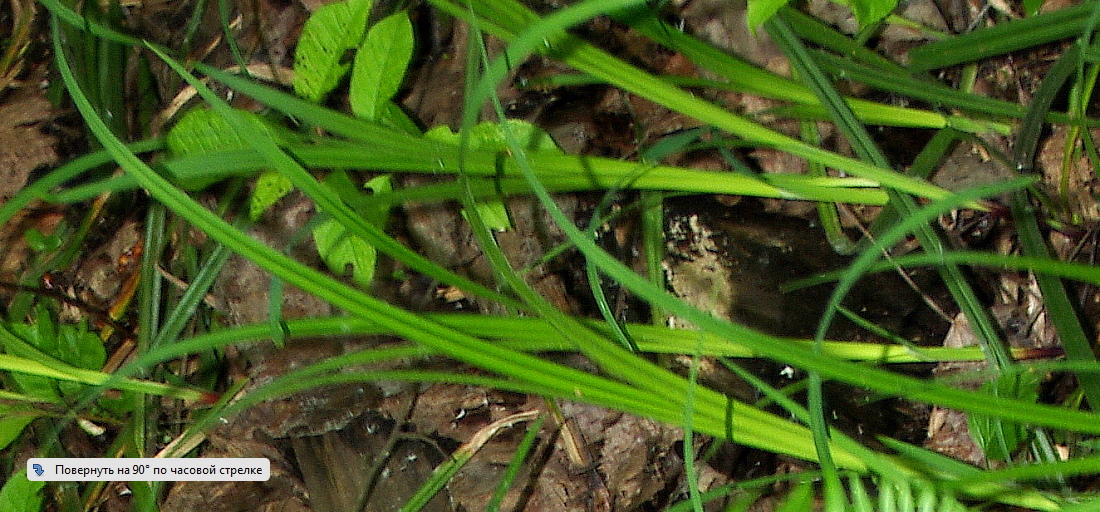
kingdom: Plantae
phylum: Tracheophyta
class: Liliopsida
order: Poales
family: Cyperaceae
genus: Carex
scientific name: Carex pilosa
